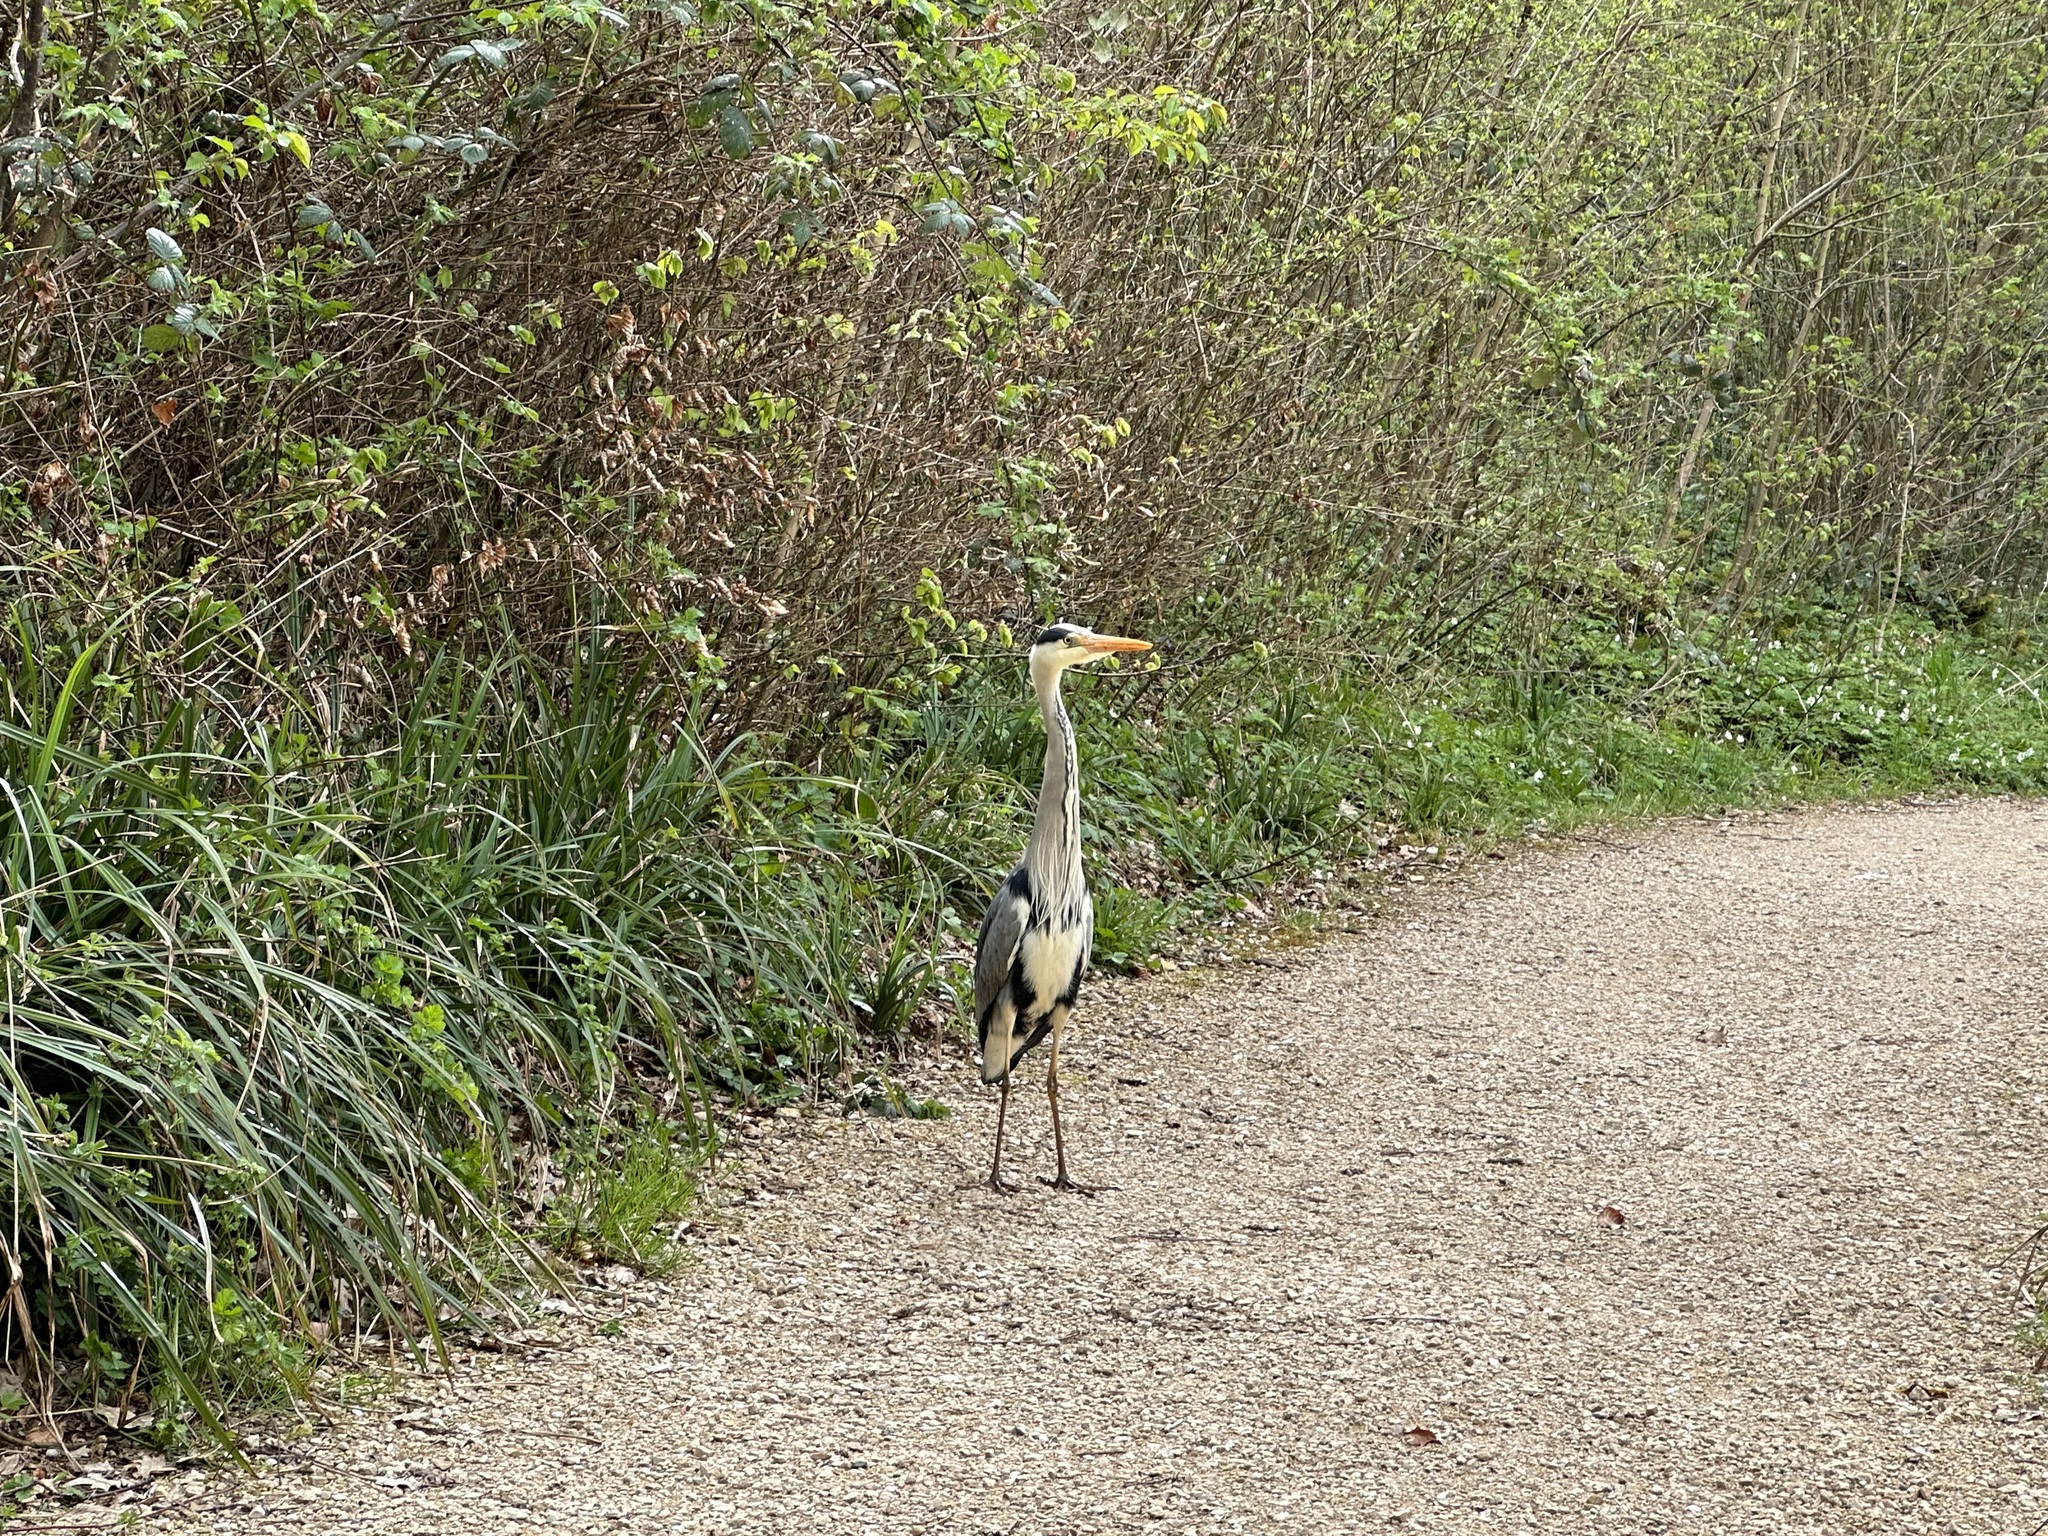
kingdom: Animalia
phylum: Chordata
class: Aves
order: Pelecaniformes
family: Ardeidae
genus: Ardea
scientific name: Ardea cinerea
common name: Grey heron
